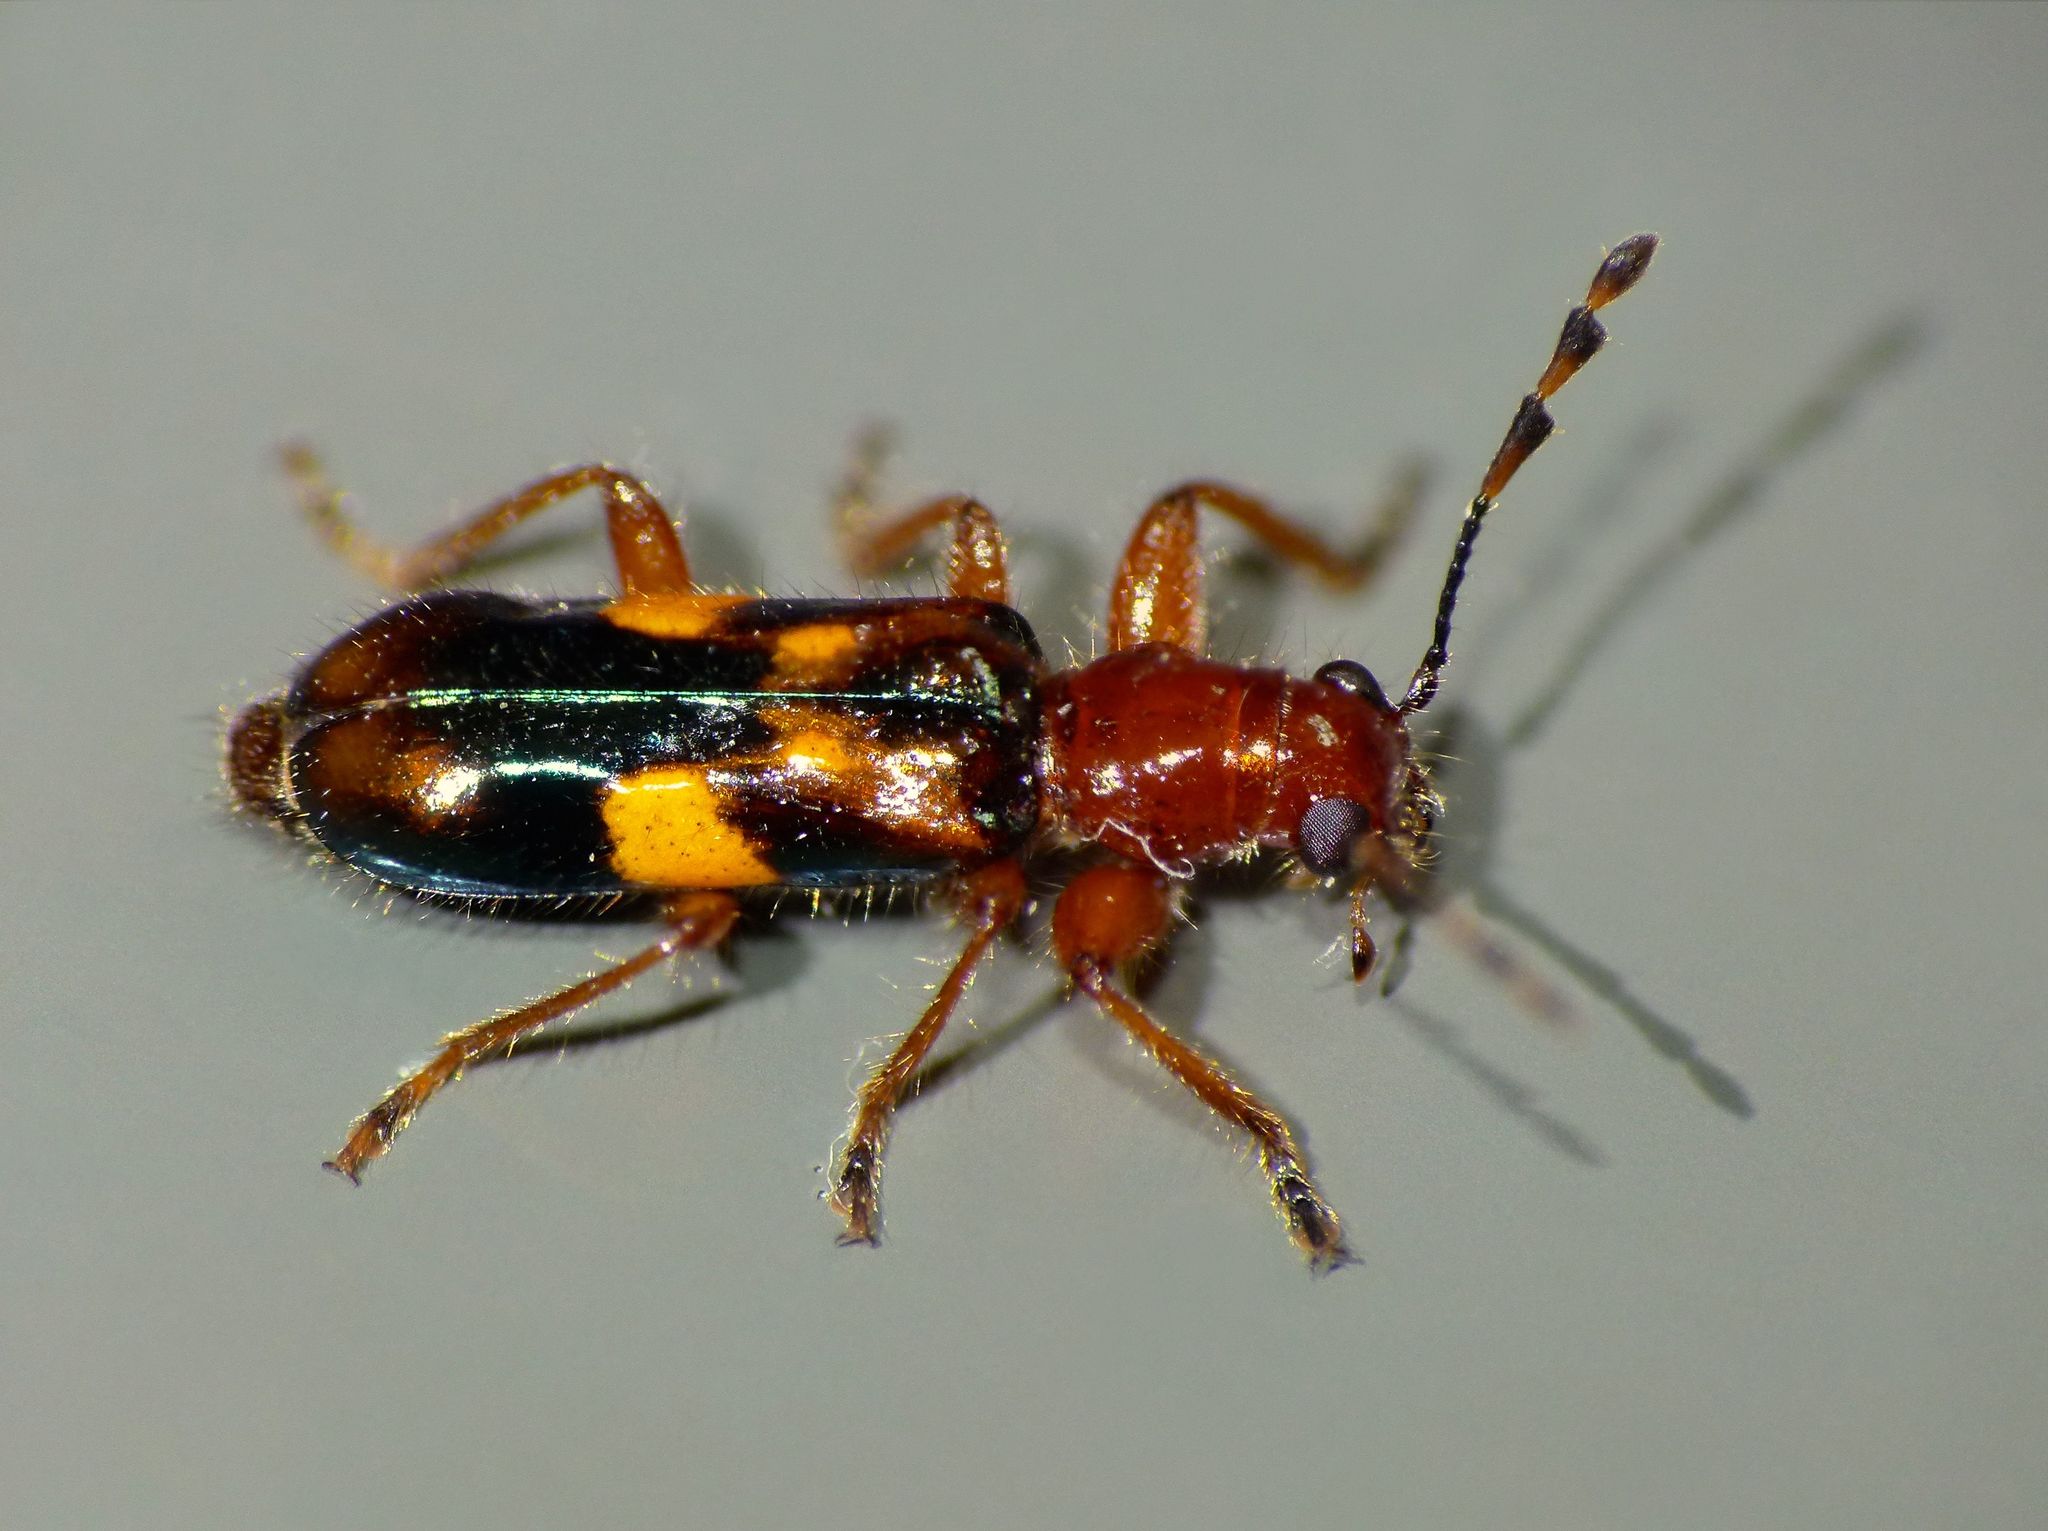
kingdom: Animalia
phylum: Arthropoda
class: Insecta
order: Coleoptera
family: Cleridae
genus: Phymatophaea
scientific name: Phymatophaea
